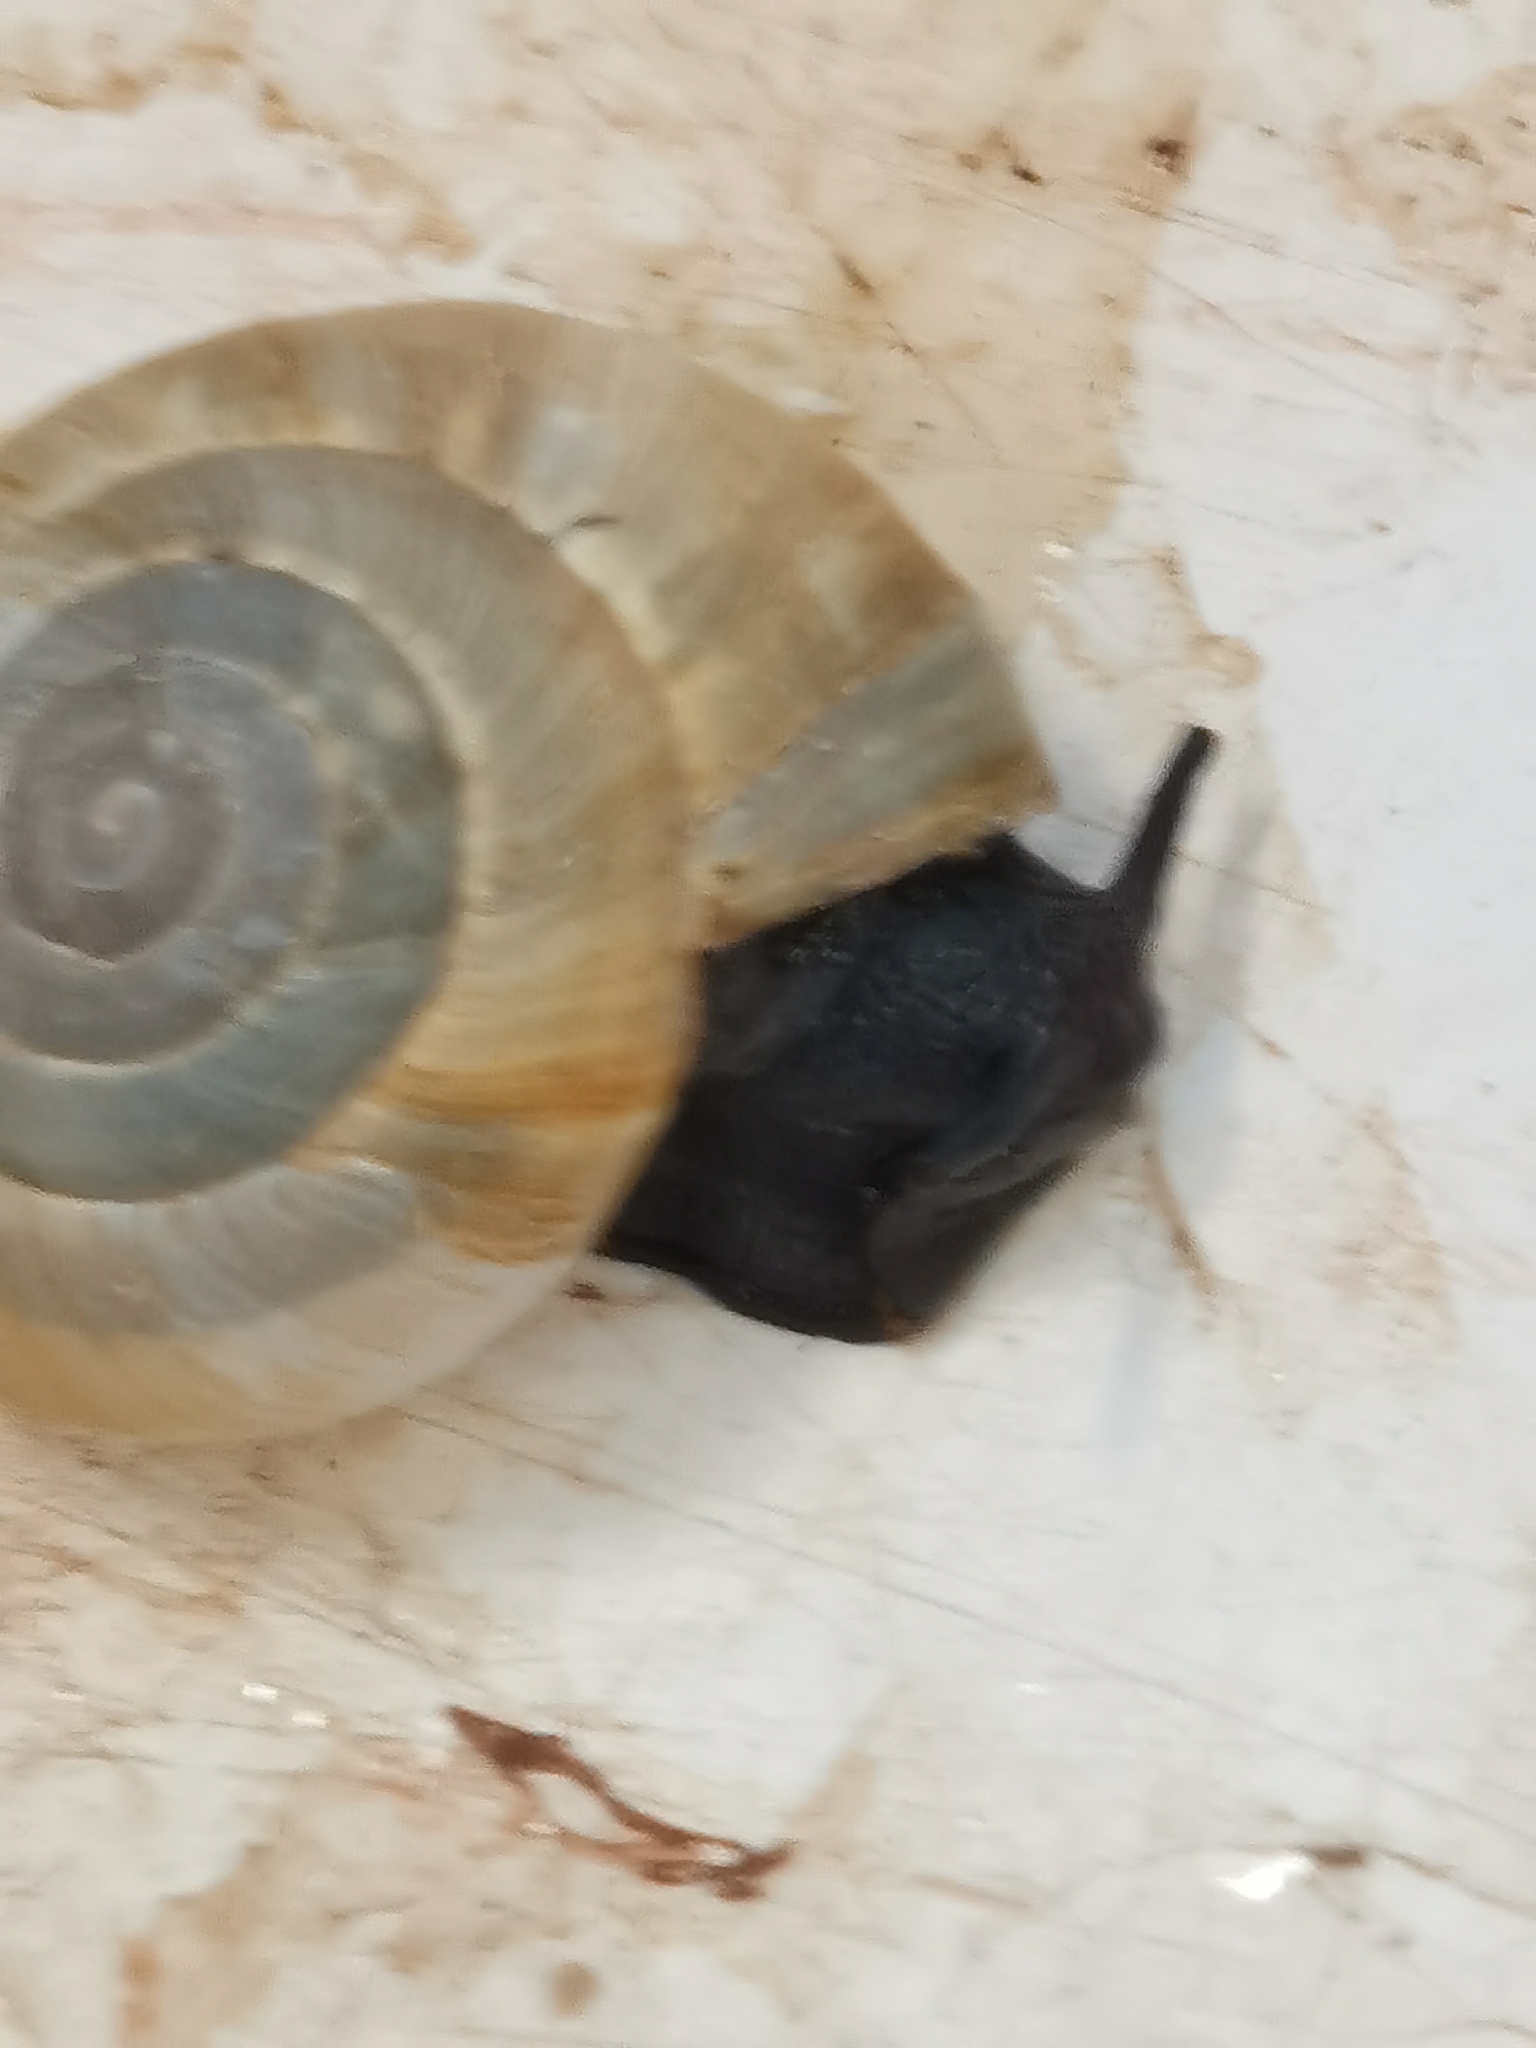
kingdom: Animalia
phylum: Mollusca
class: Gastropoda
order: Stylommatophora
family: Zonitidae
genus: Zonites
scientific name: Zonites algirus
